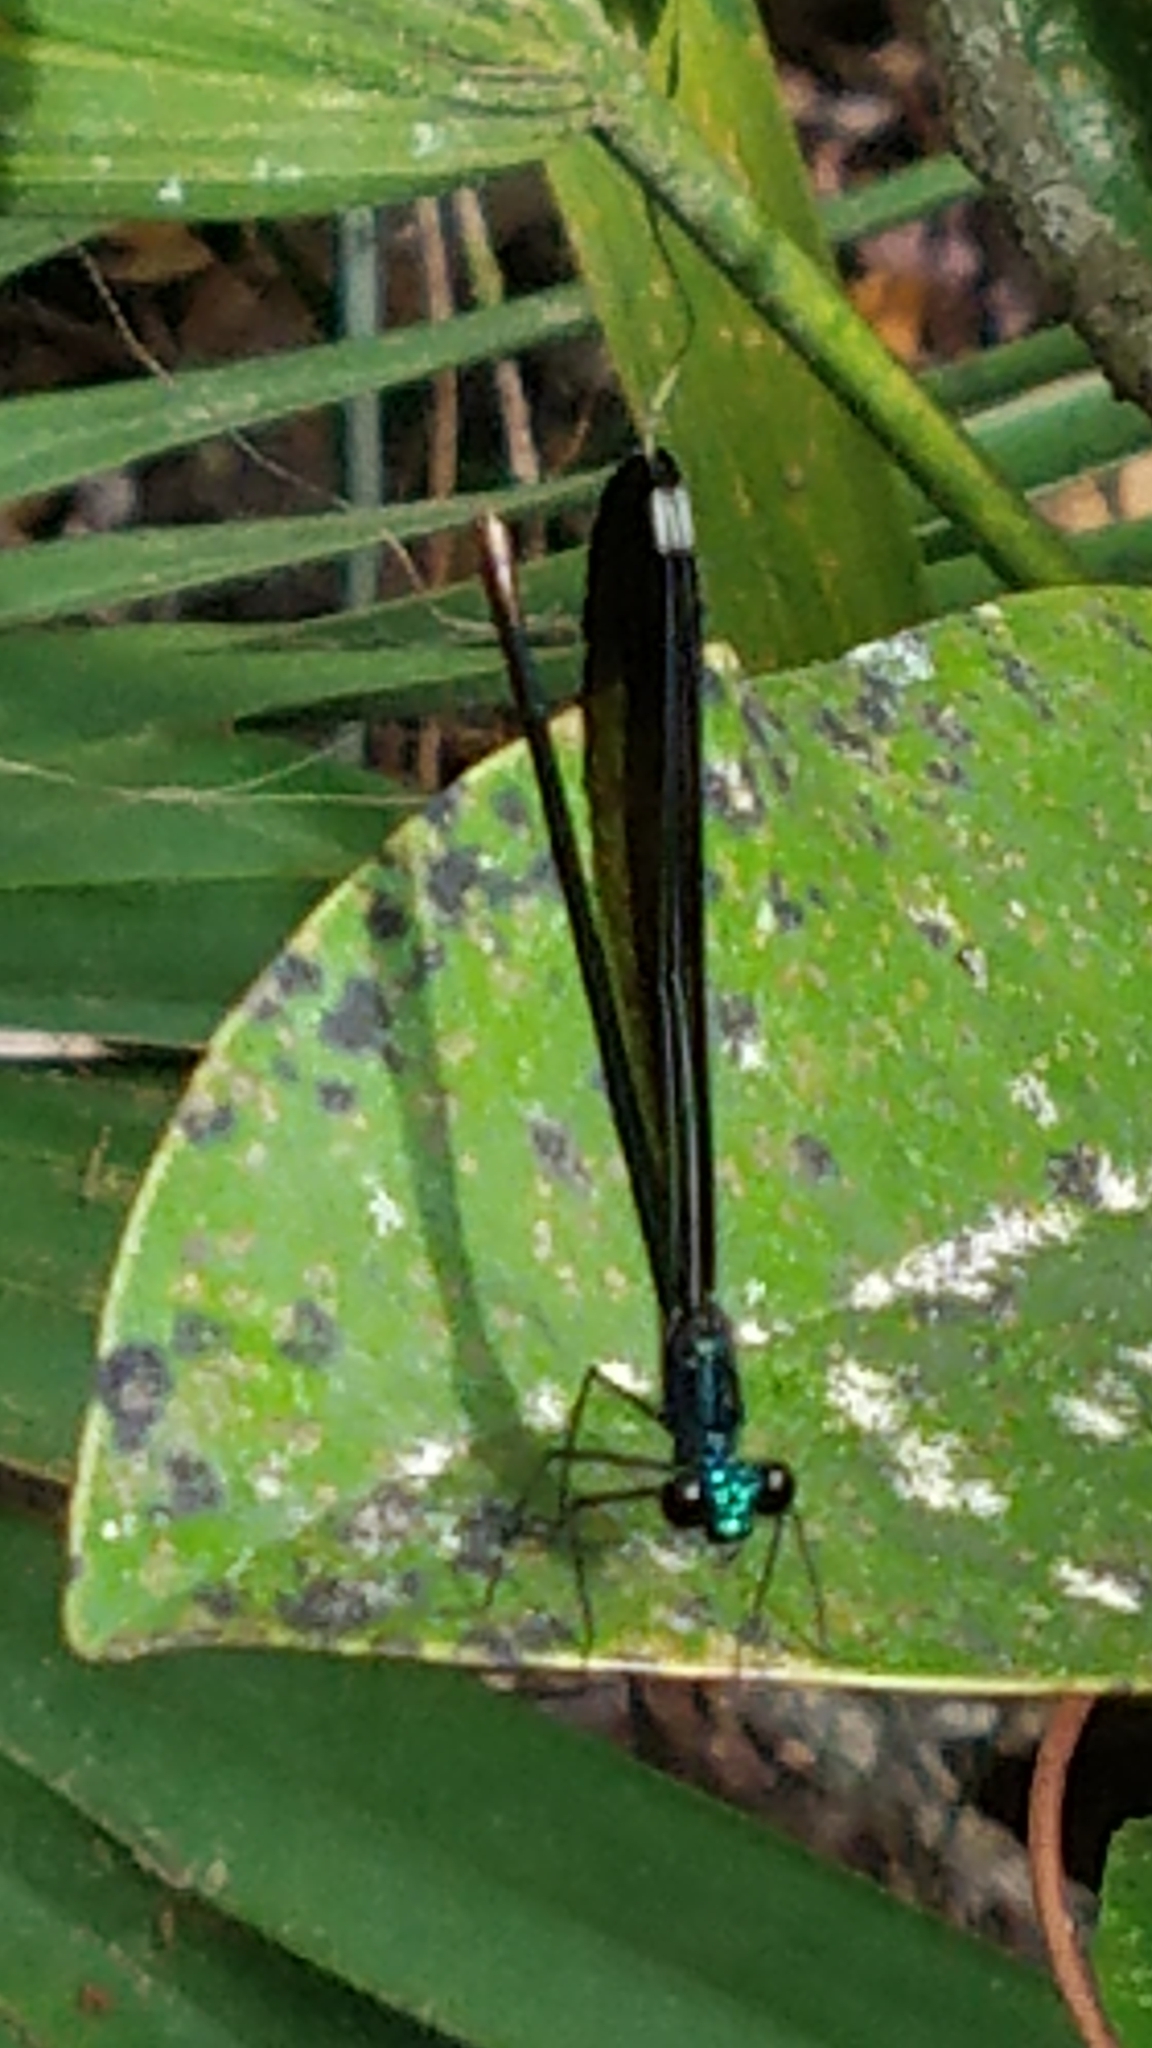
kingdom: Animalia
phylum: Arthropoda
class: Insecta
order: Odonata
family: Calopterygidae
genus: Calopteryx
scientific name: Calopteryx maculata
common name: Ebony jewelwing
